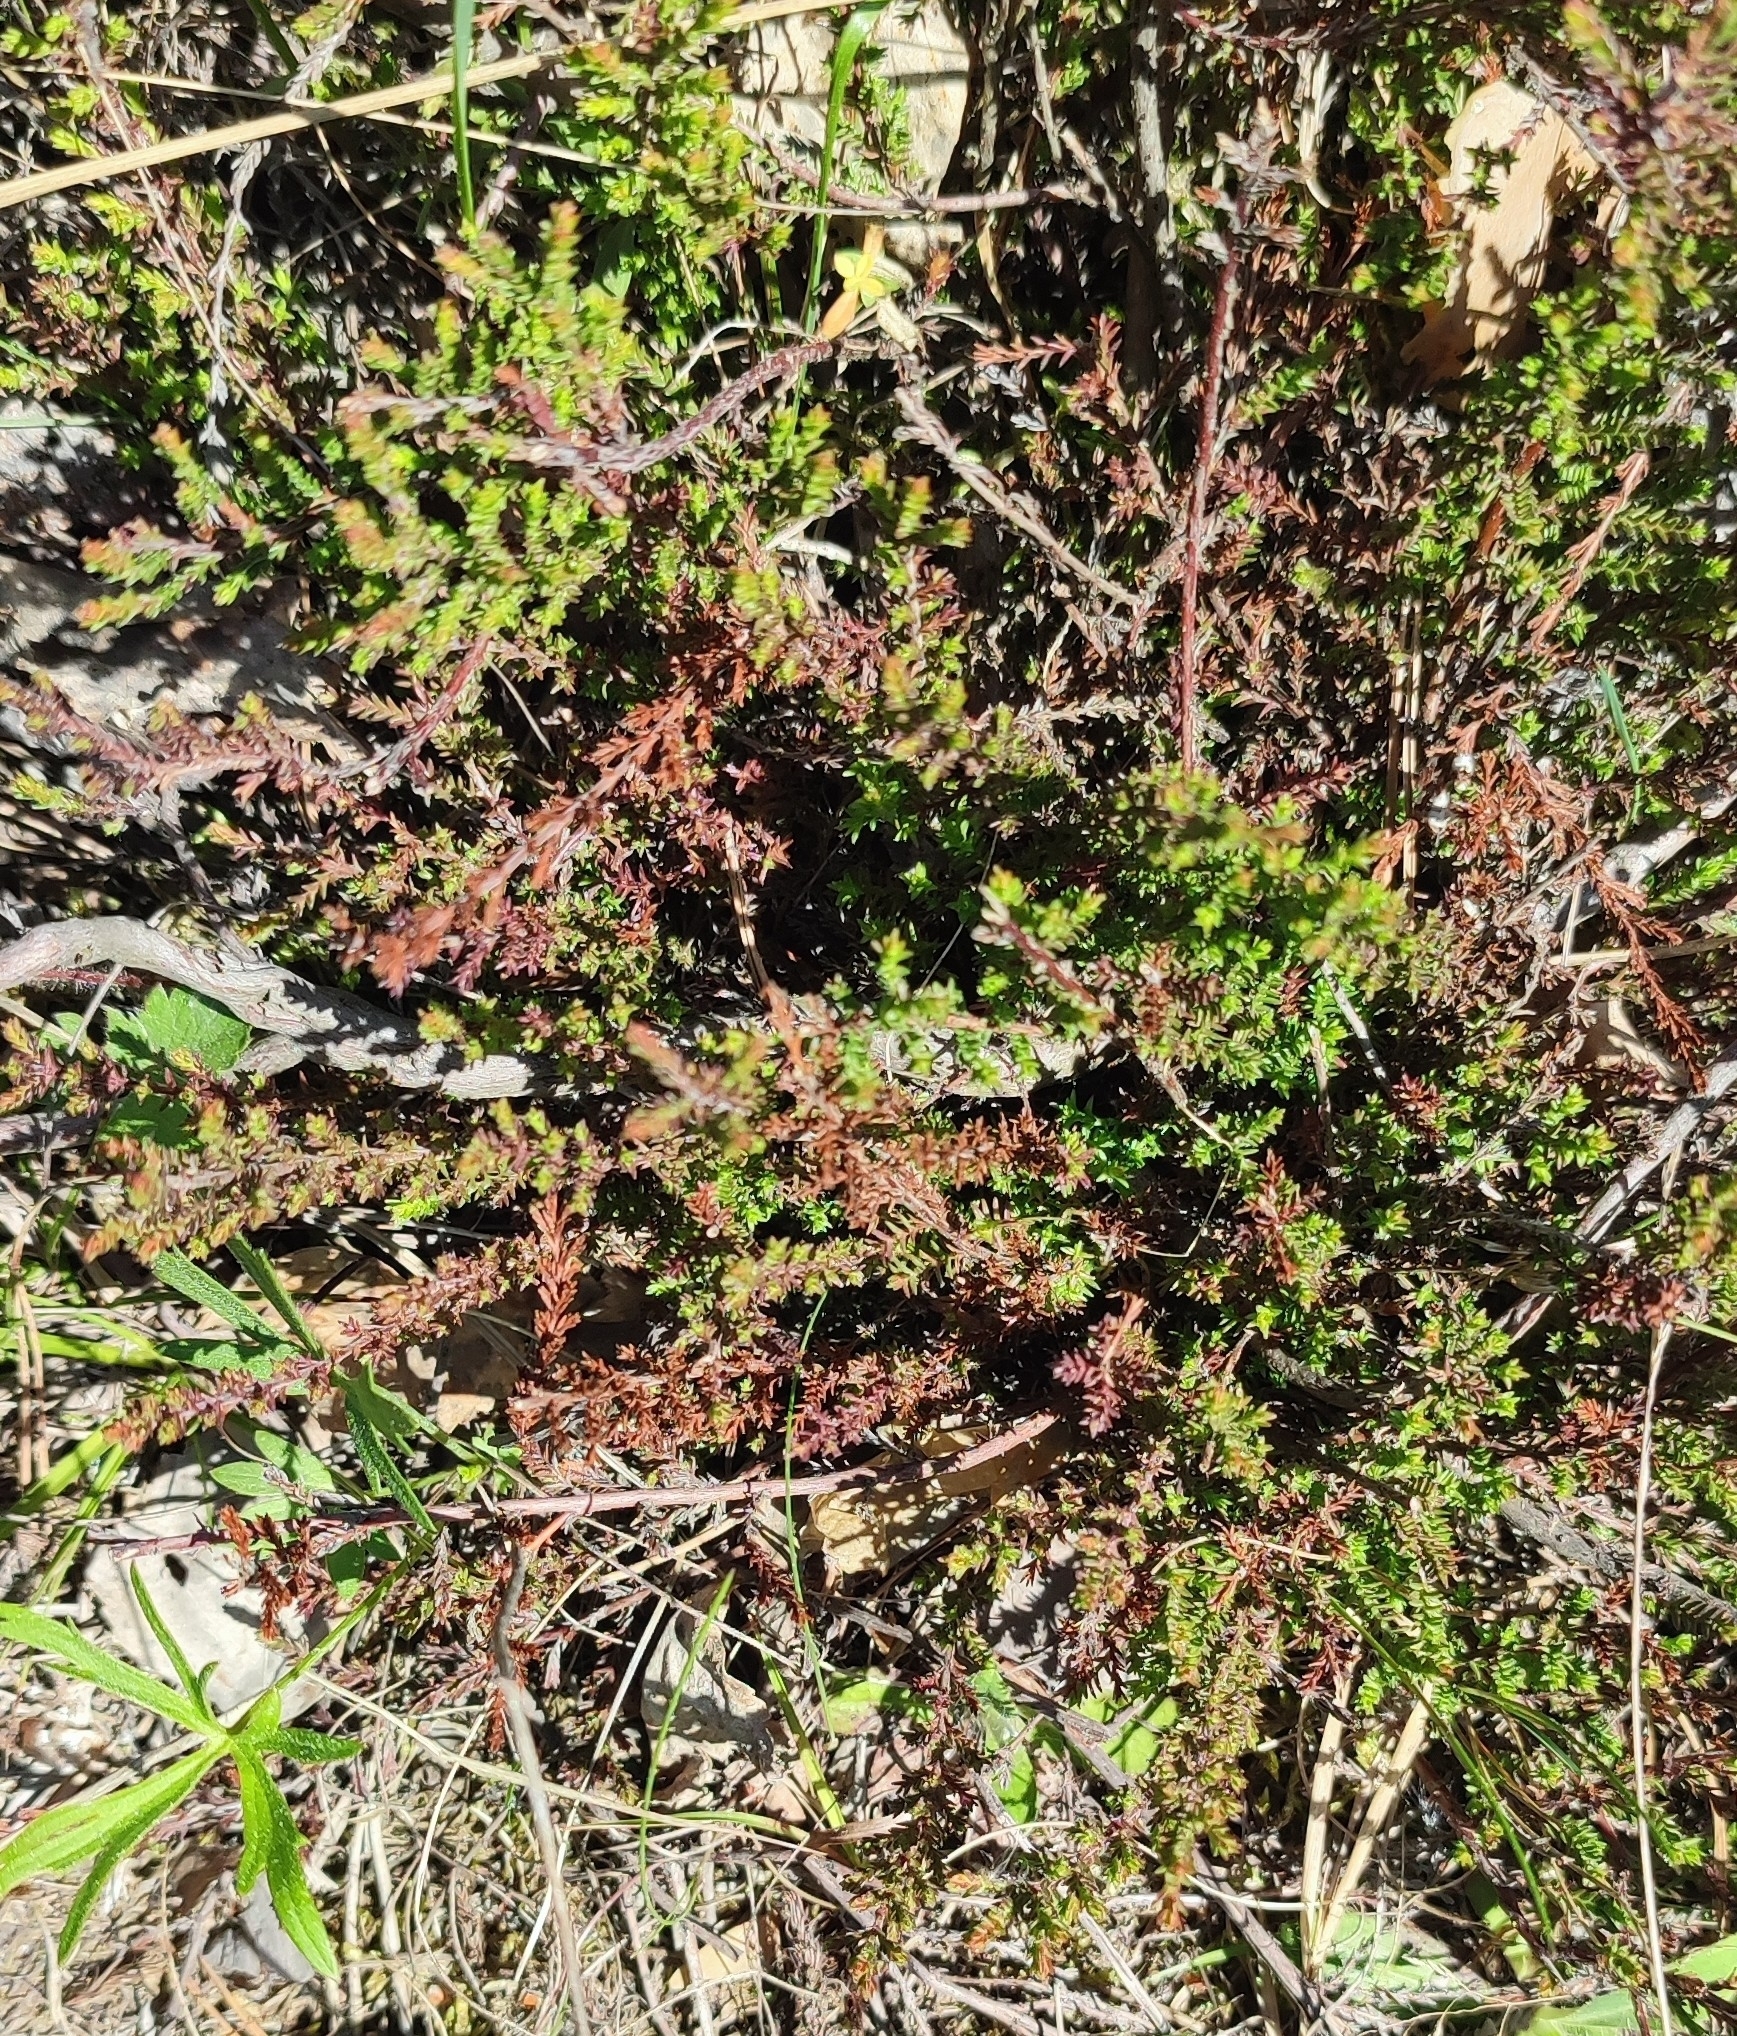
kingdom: Plantae
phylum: Tracheophyta
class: Magnoliopsida
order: Ericales
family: Ericaceae
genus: Calluna
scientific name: Calluna vulgaris
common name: Heather
